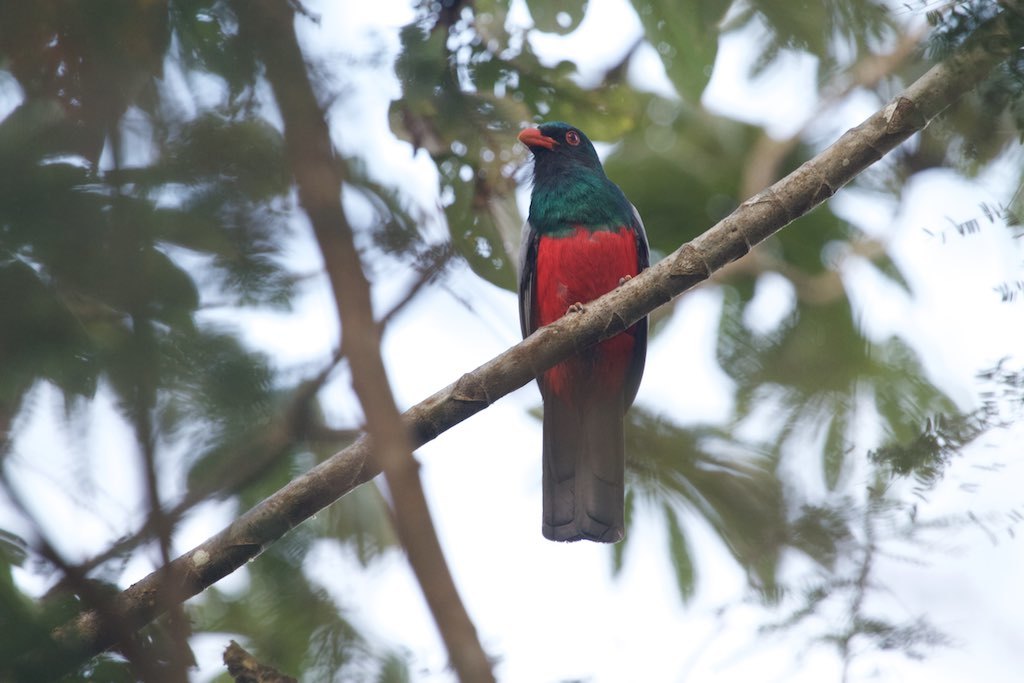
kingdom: Animalia
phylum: Chordata
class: Aves
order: Trogoniformes
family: Trogonidae
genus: Trogon
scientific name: Trogon massena
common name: Slaty-tailed trogon
